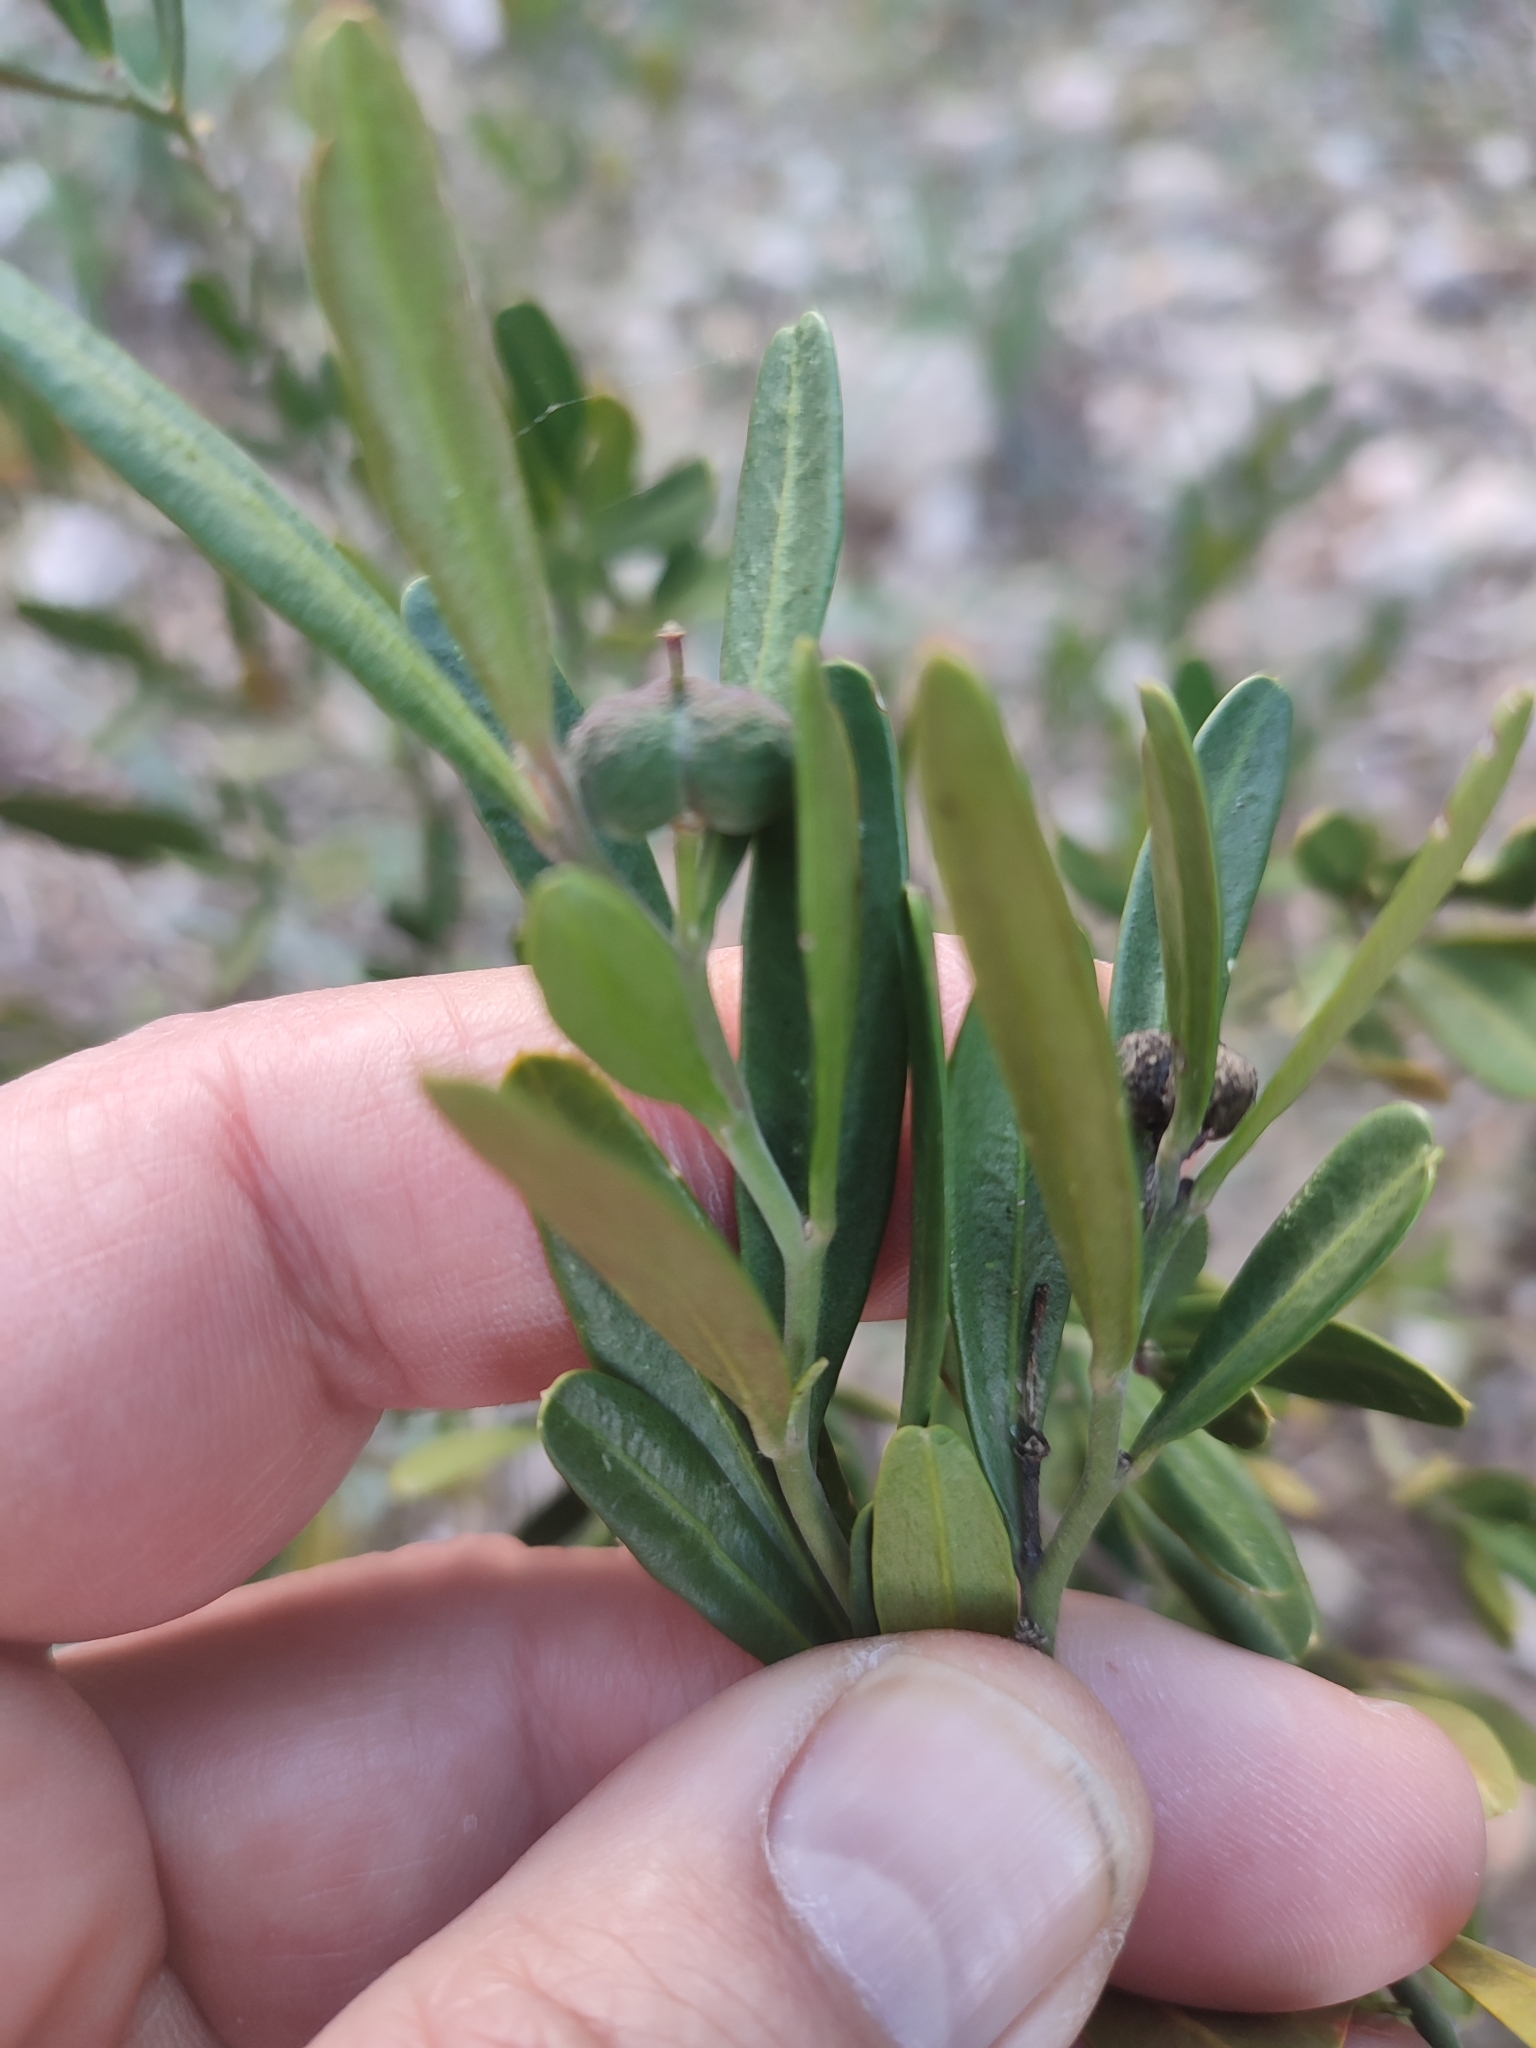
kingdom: Plantae
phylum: Tracheophyta
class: Magnoliopsida
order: Sapindales
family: Rutaceae
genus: Cneorum
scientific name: Cneorum tricoccon
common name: Spurge olive
